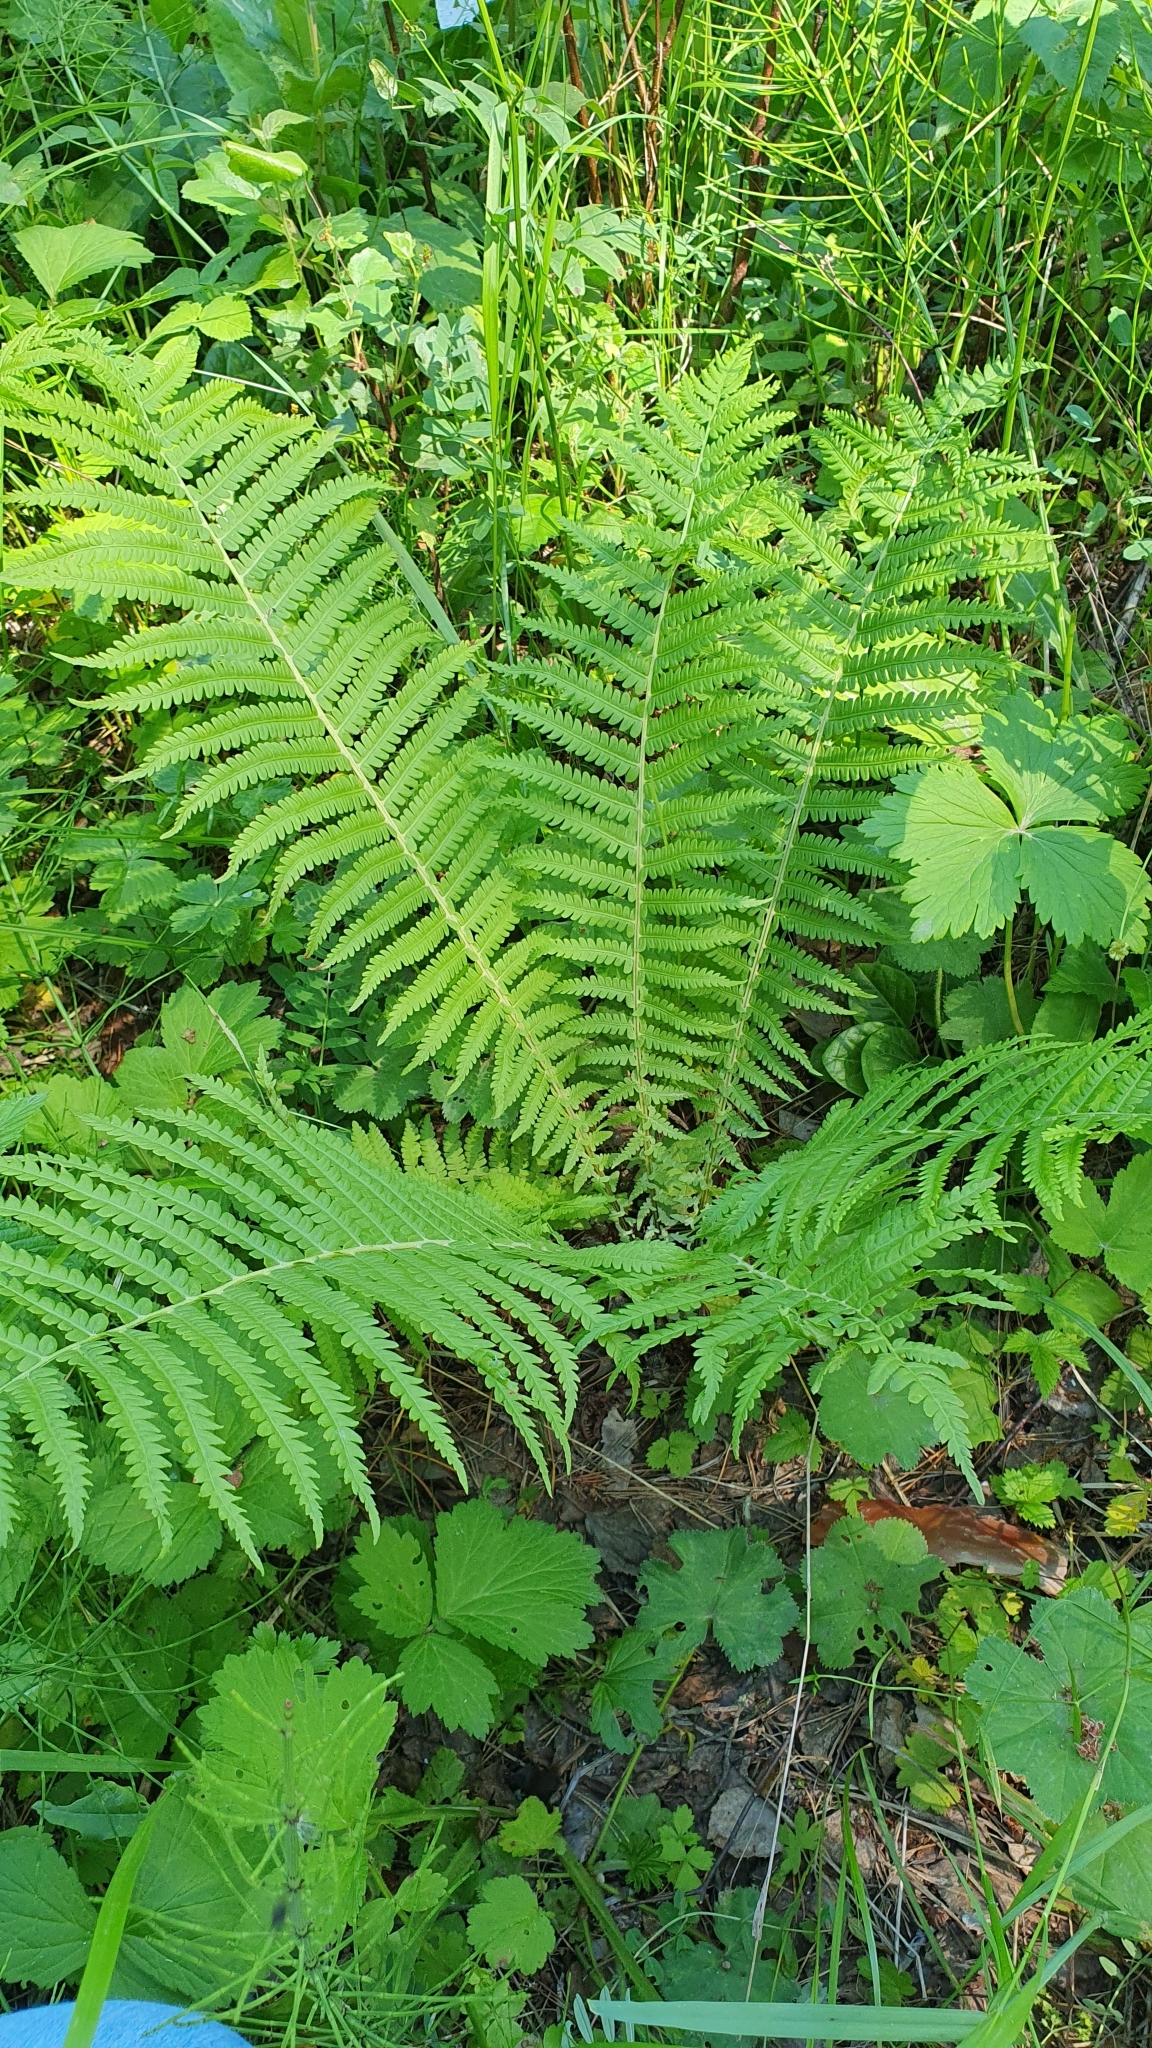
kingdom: Plantae
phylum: Tracheophyta
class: Polypodiopsida
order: Polypodiales
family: Onocleaceae
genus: Matteuccia
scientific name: Matteuccia struthiopteris
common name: Ostrich fern
